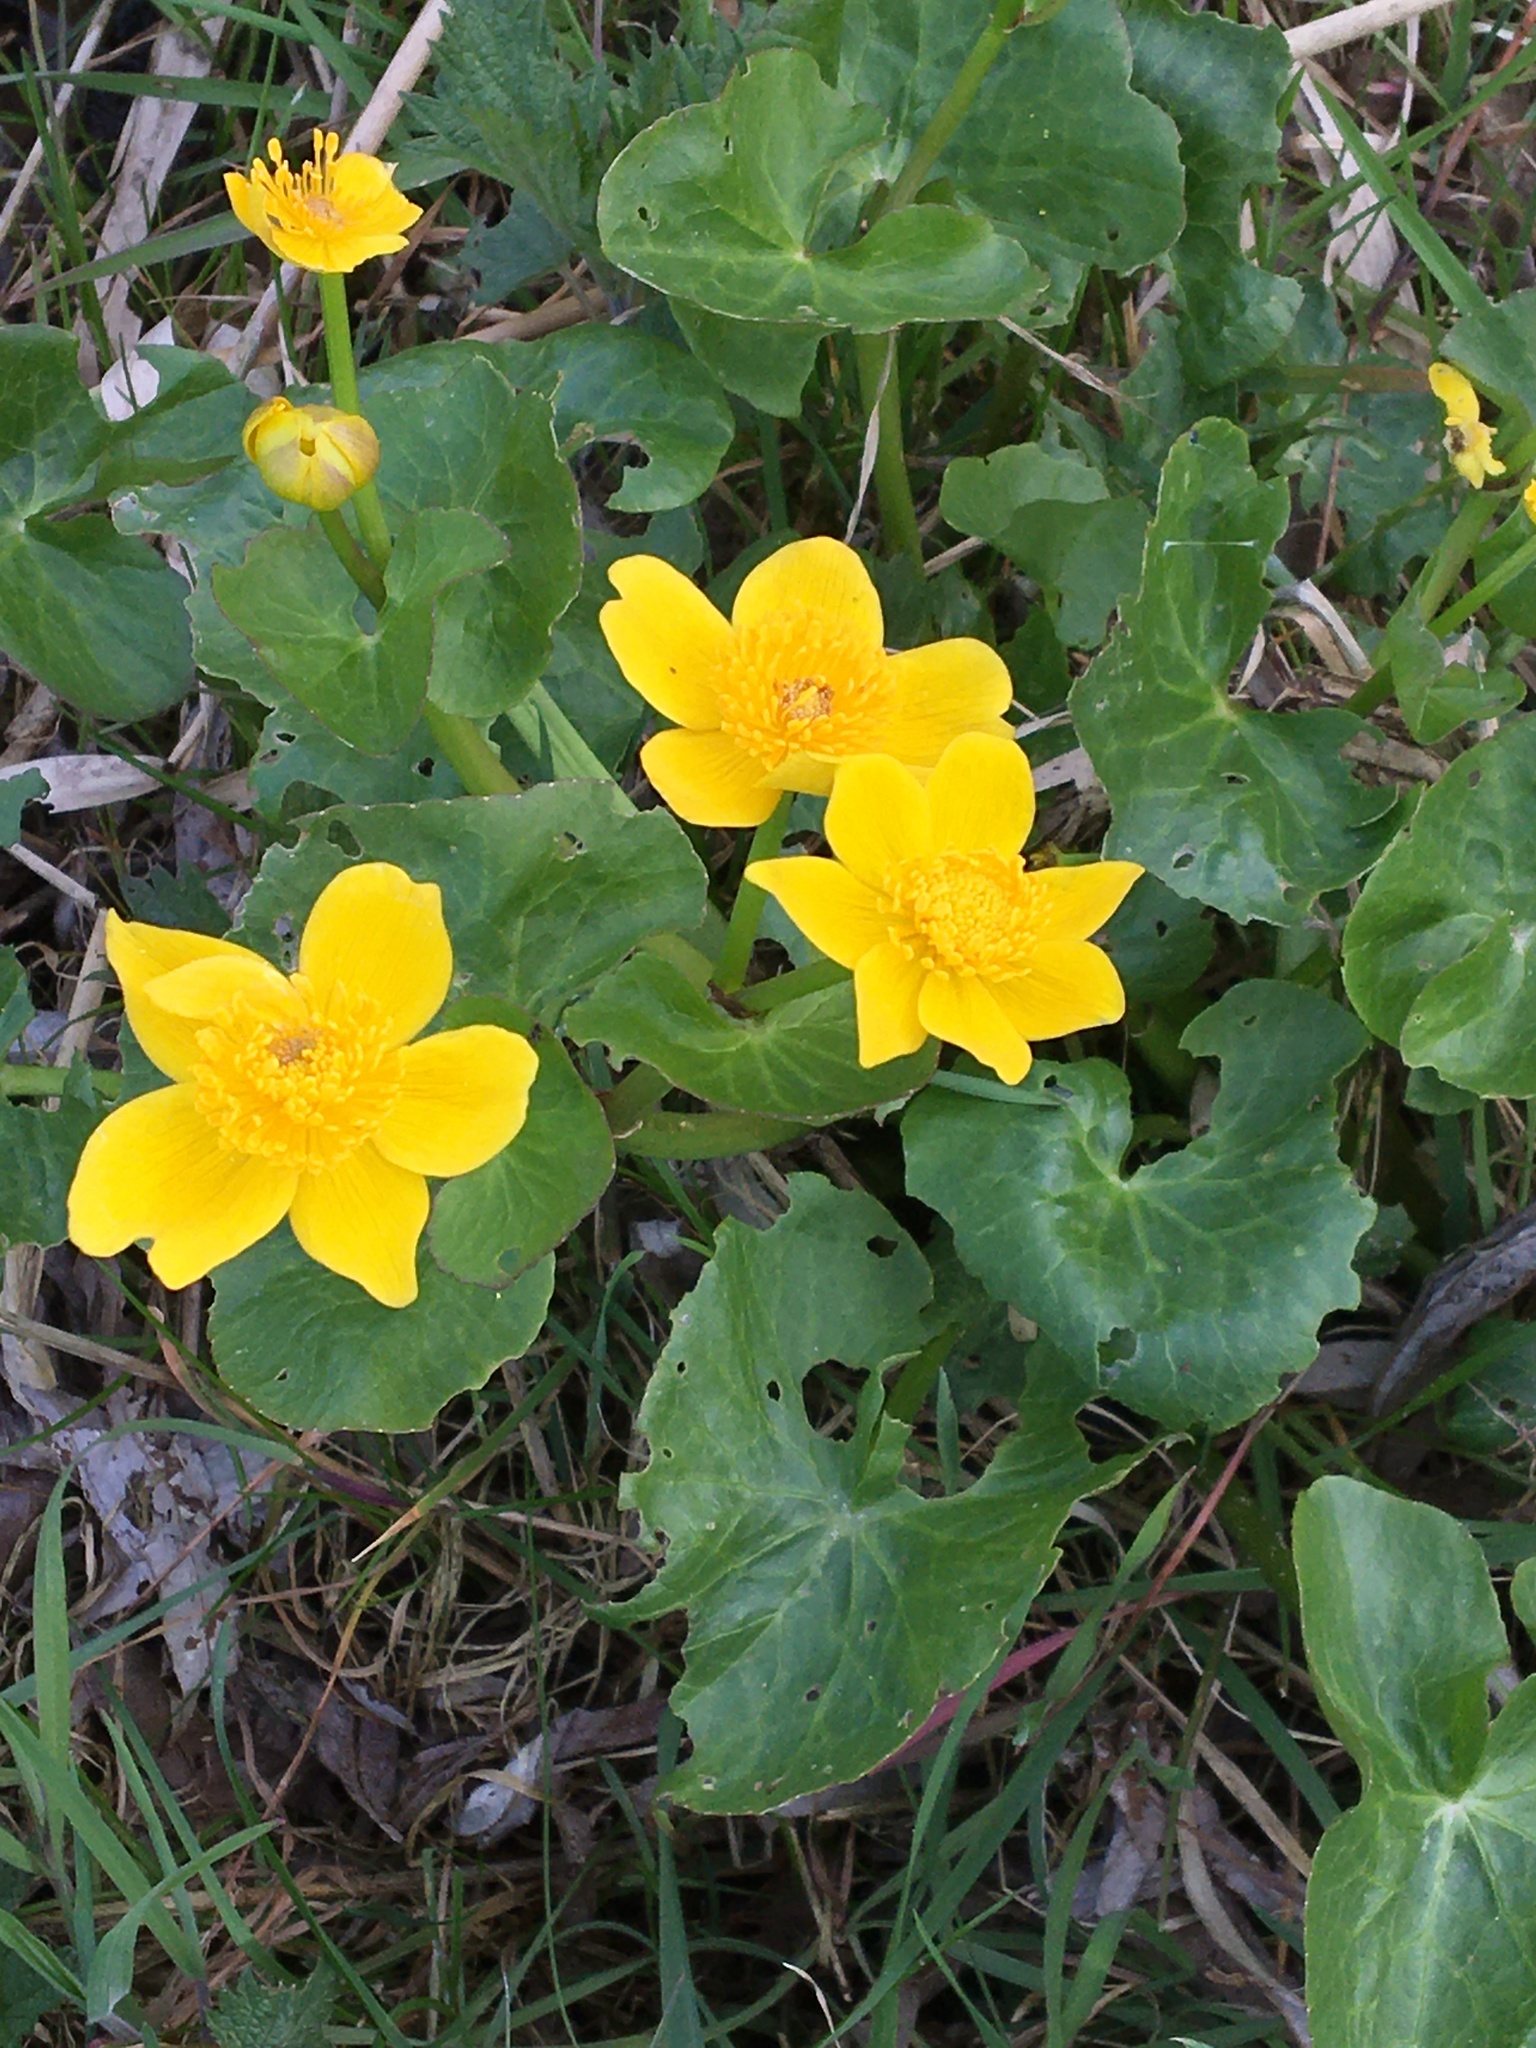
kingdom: Plantae
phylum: Tracheophyta
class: Magnoliopsida
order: Ranunculales
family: Ranunculaceae
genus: Caltha
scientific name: Caltha palustris
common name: Marsh marigold
